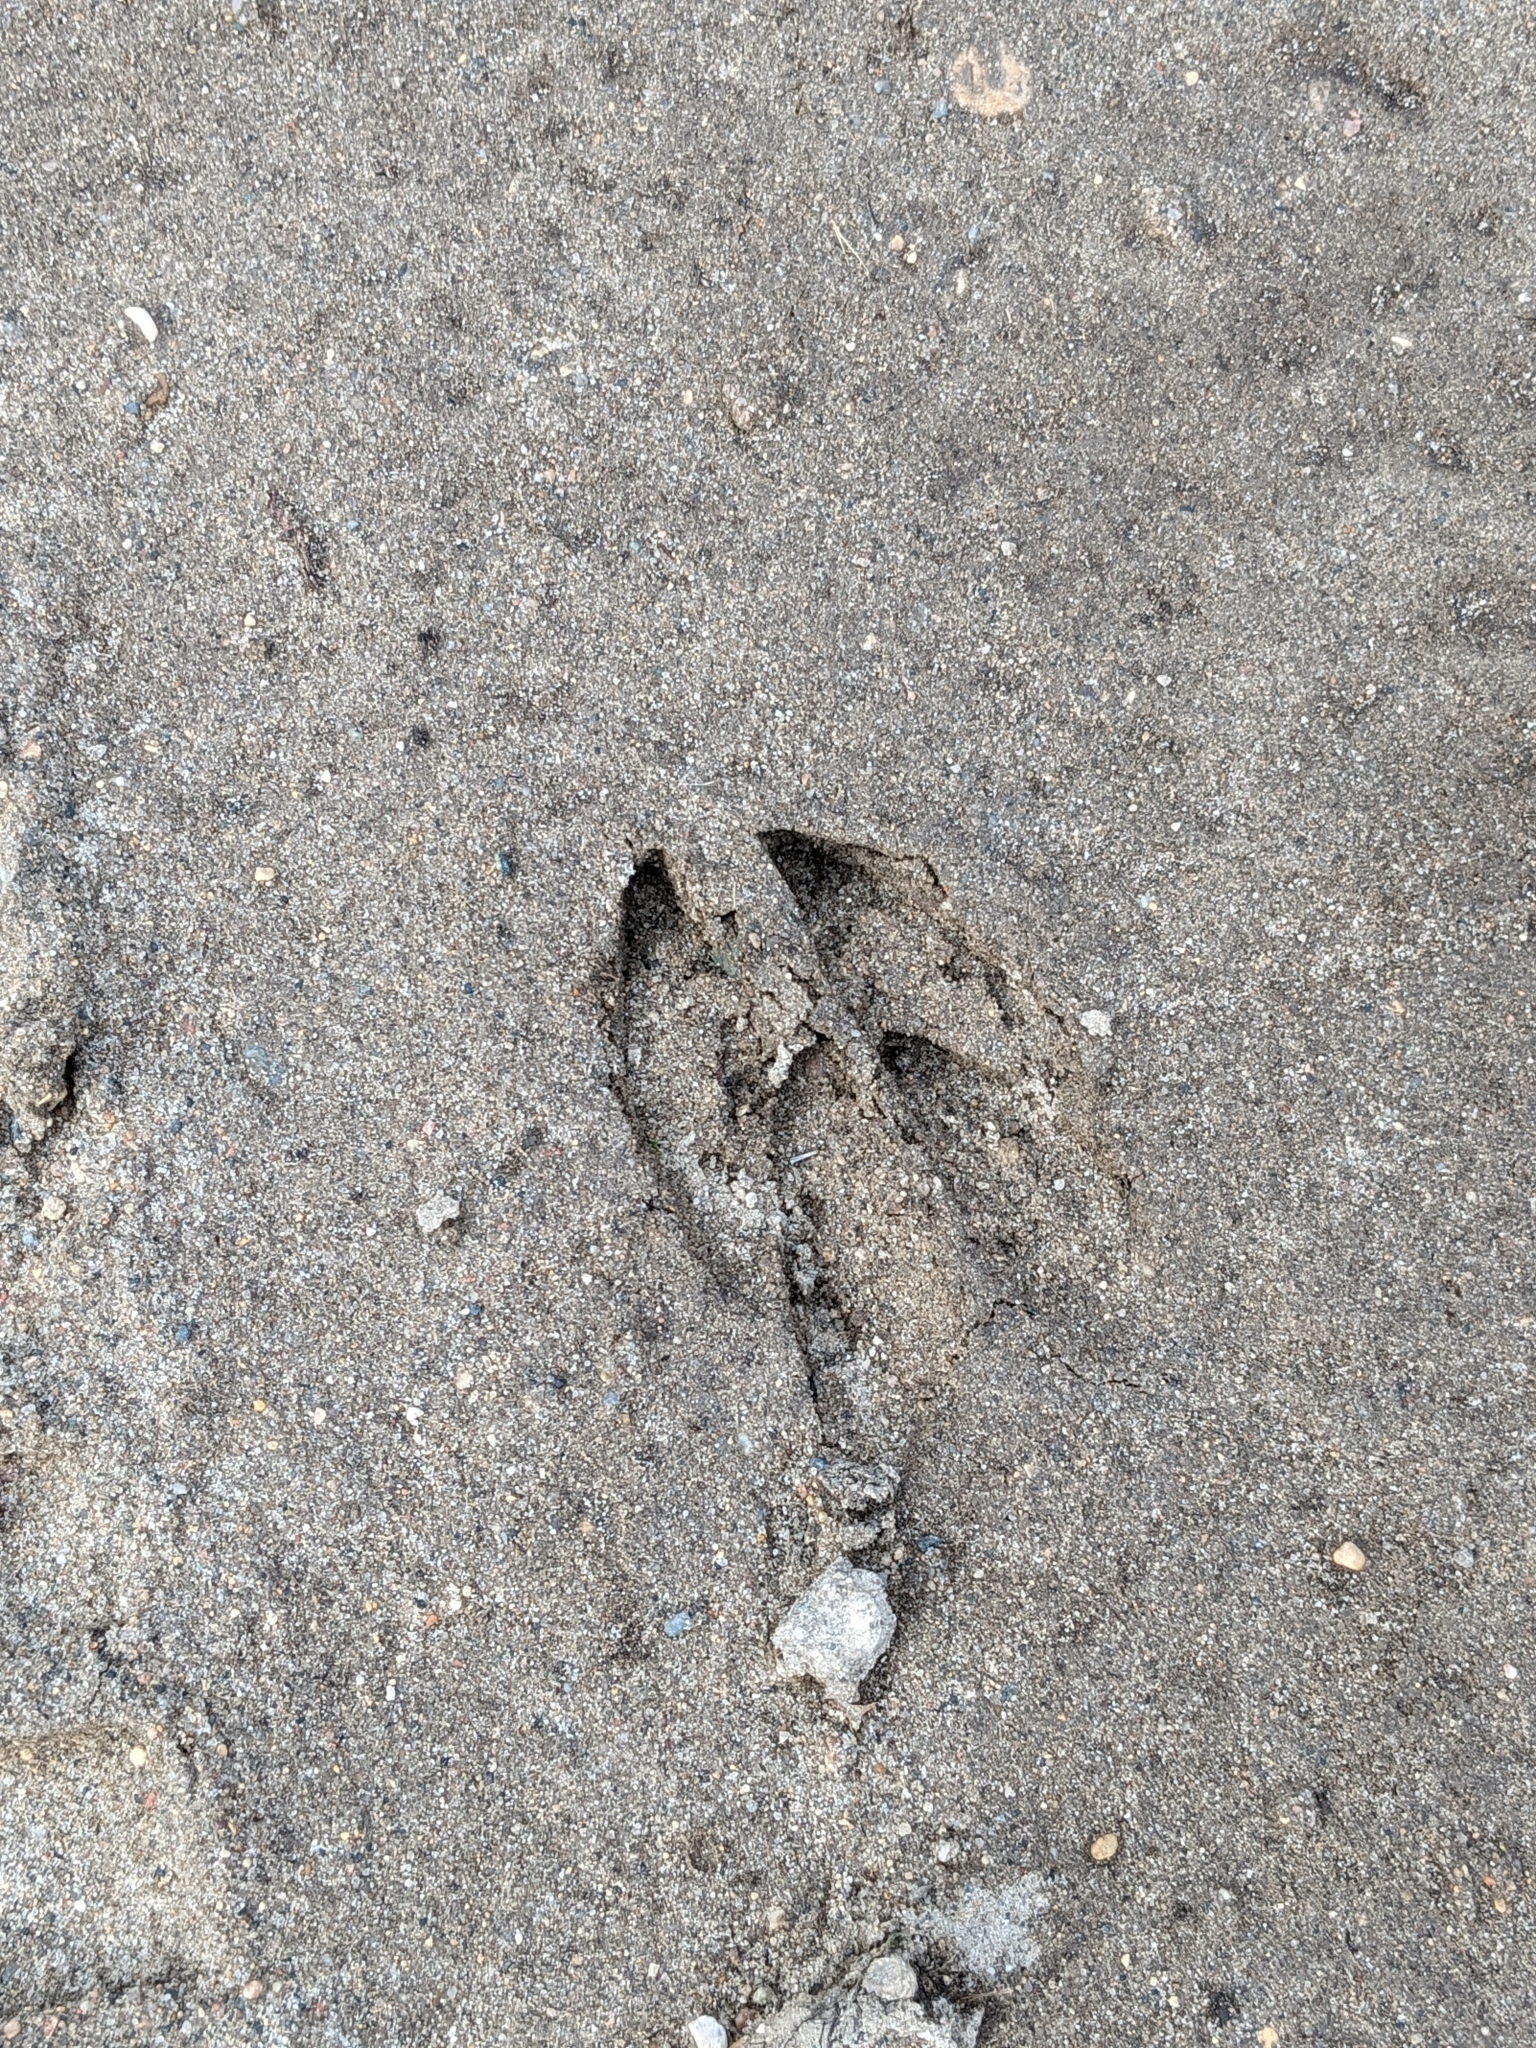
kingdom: Animalia
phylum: Chordata
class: Mammalia
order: Artiodactyla
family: Cervidae
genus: Odocoileus
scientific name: Odocoileus virginianus
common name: White-tailed deer
